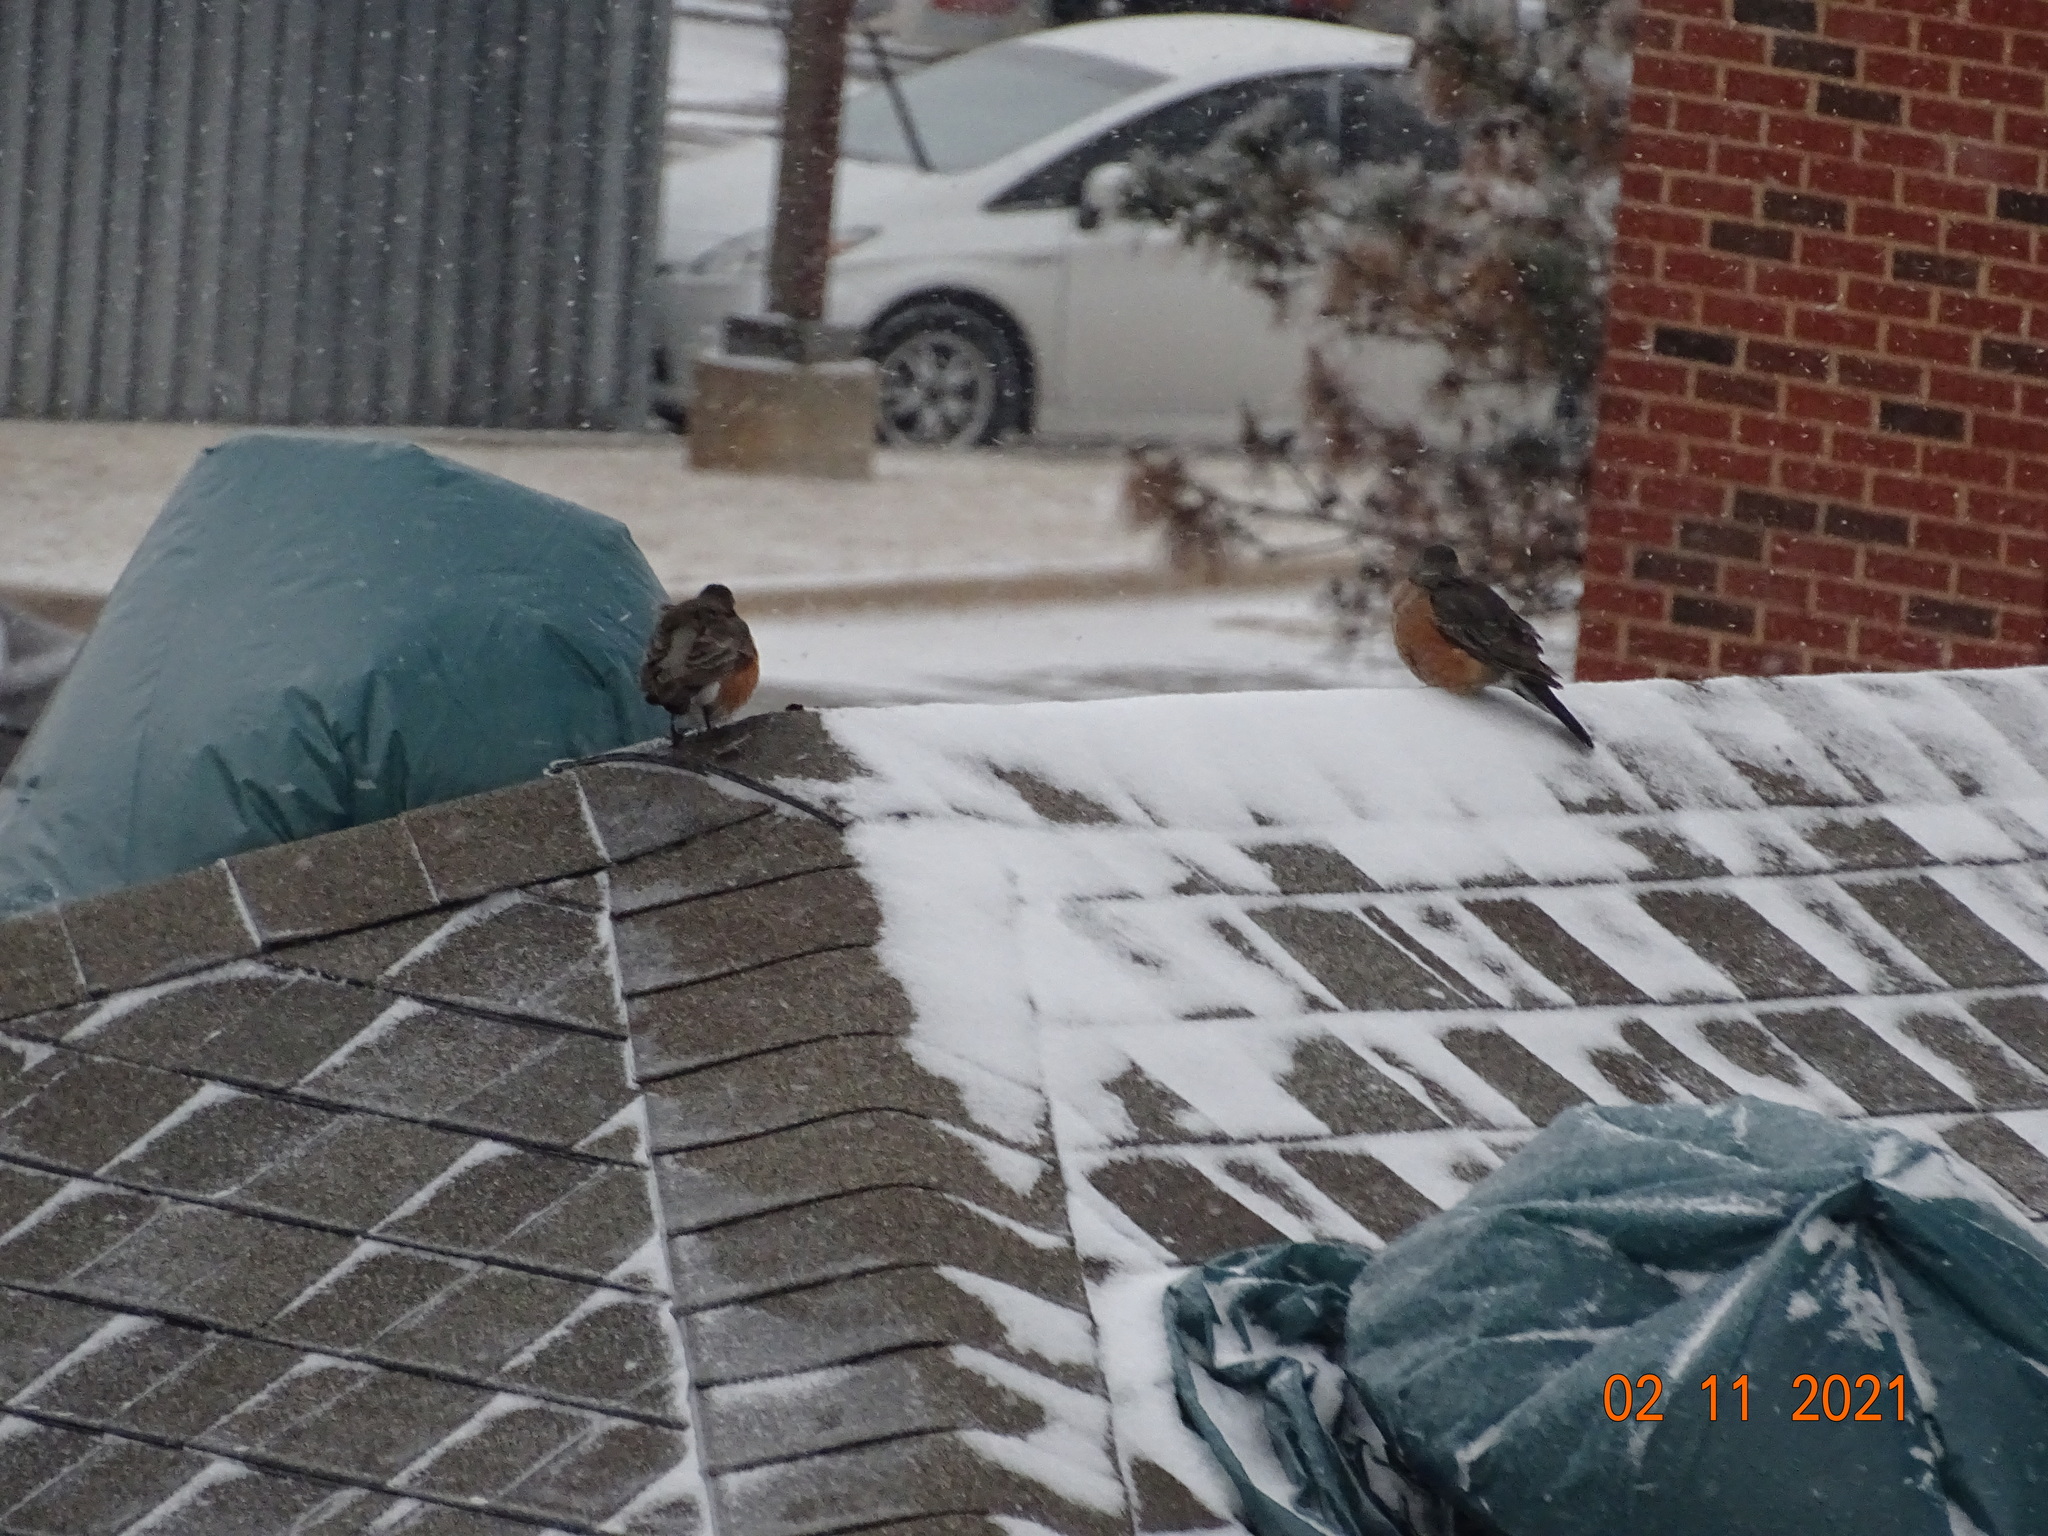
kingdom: Animalia
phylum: Chordata
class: Aves
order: Passeriformes
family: Turdidae
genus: Turdus
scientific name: Turdus migratorius
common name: American robin
